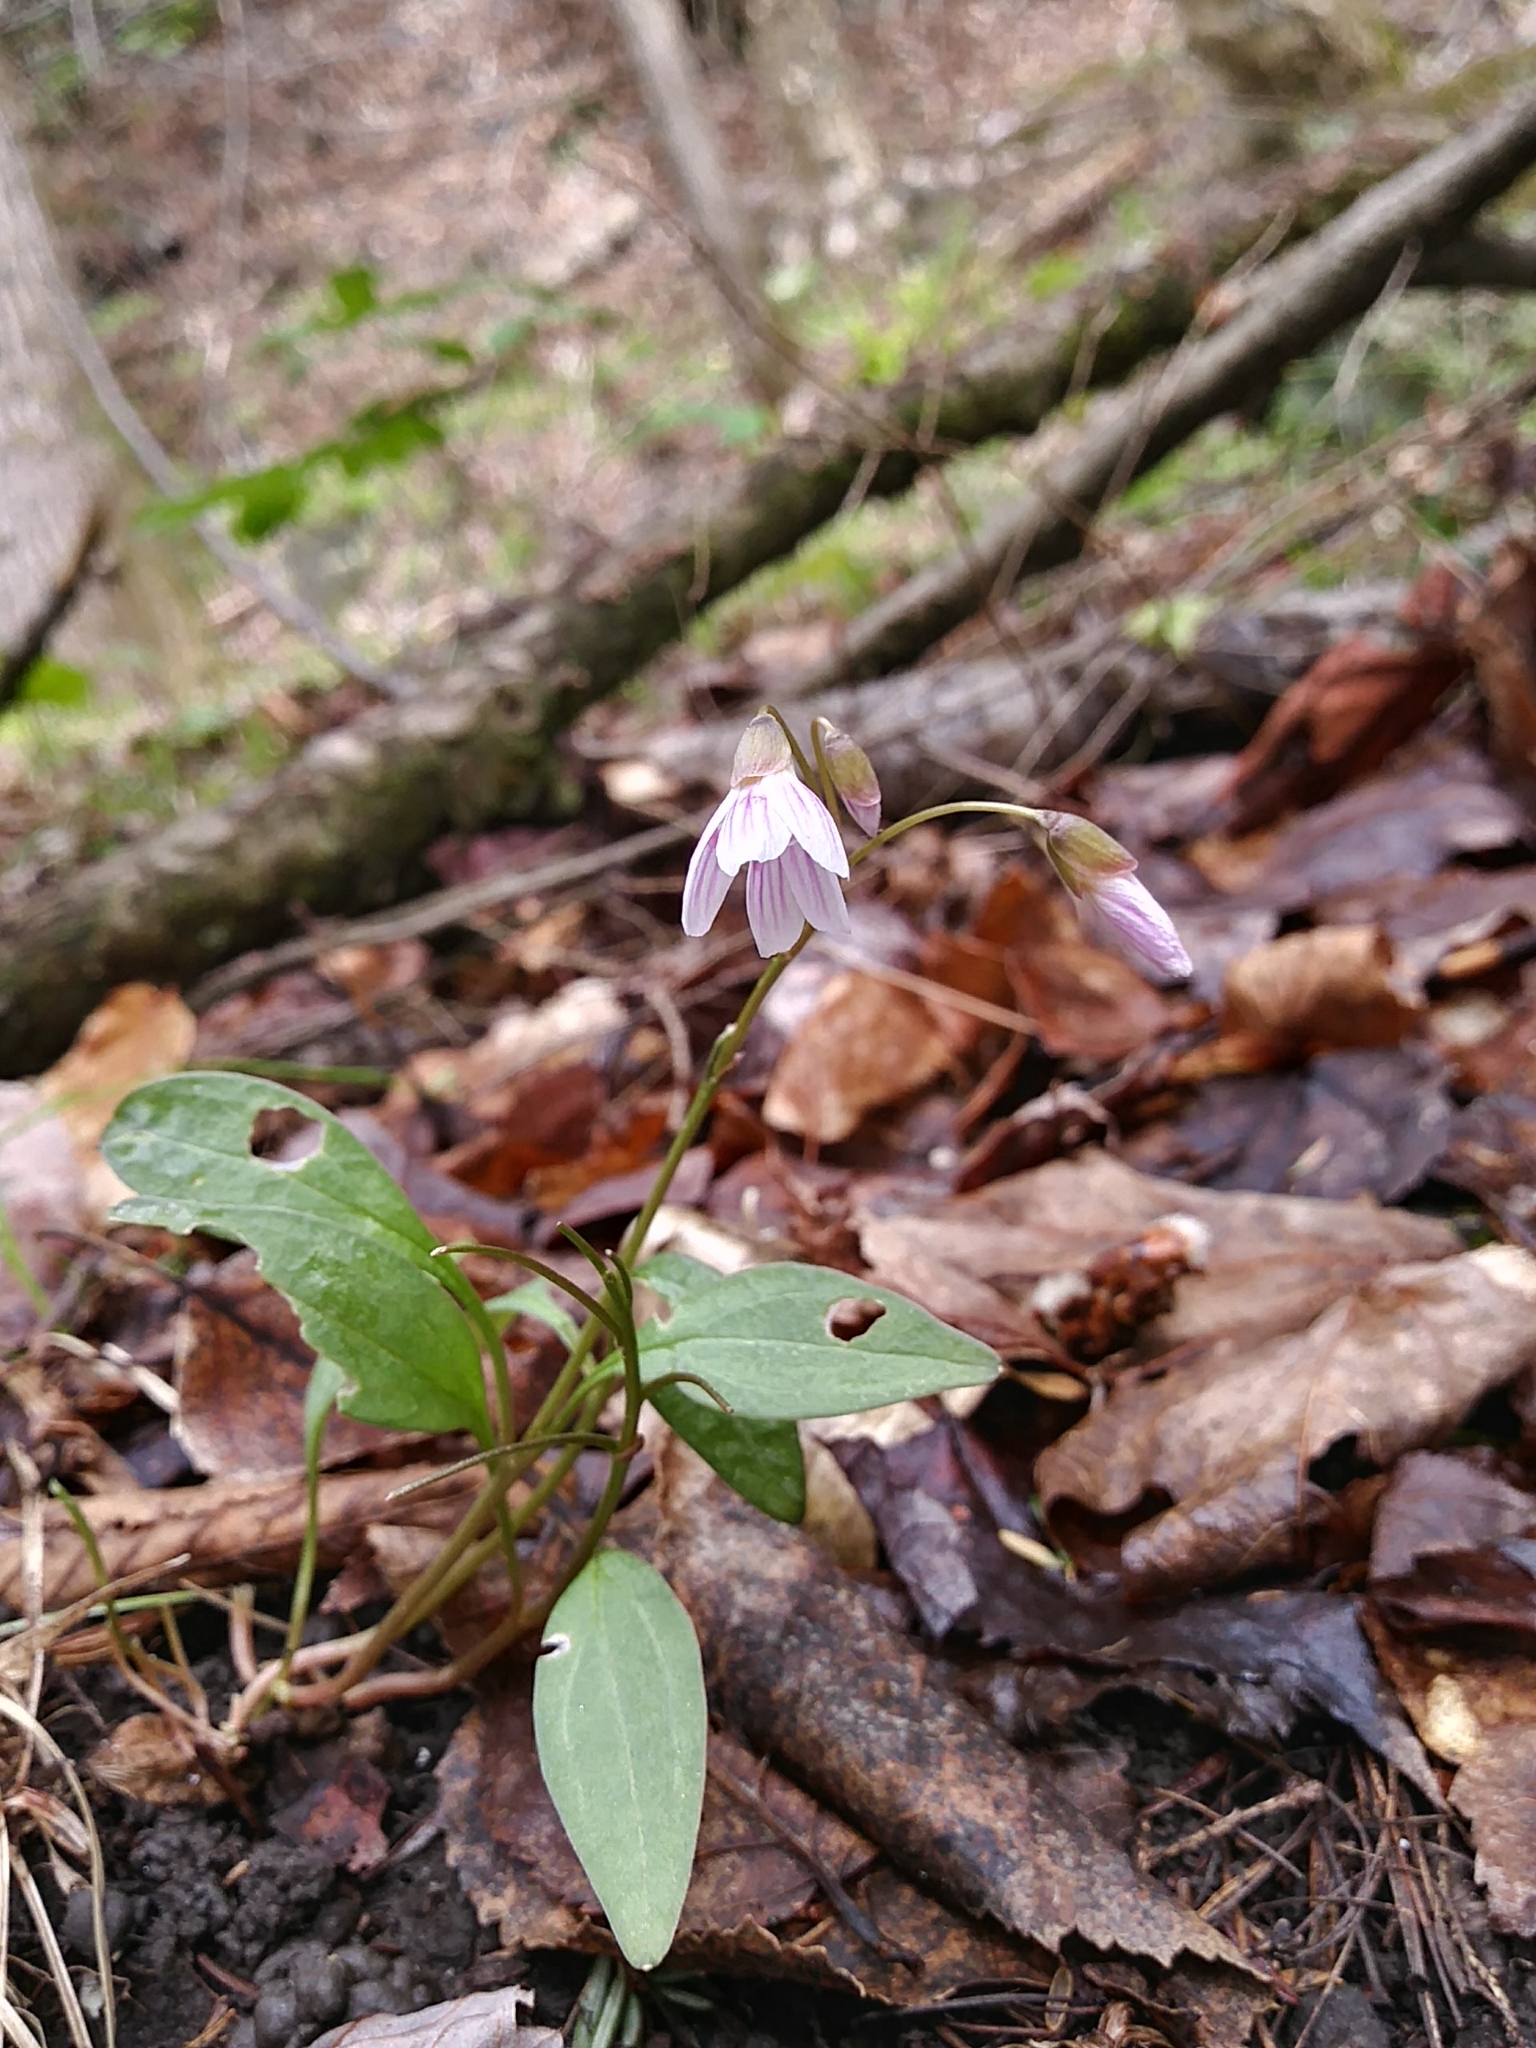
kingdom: Plantae
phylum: Tracheophyta
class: Magnoliopsida
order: Caryophyllales
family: Montiaceae
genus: Claytonia
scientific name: Claytonia caroliniana
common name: Carolina spring beauty
